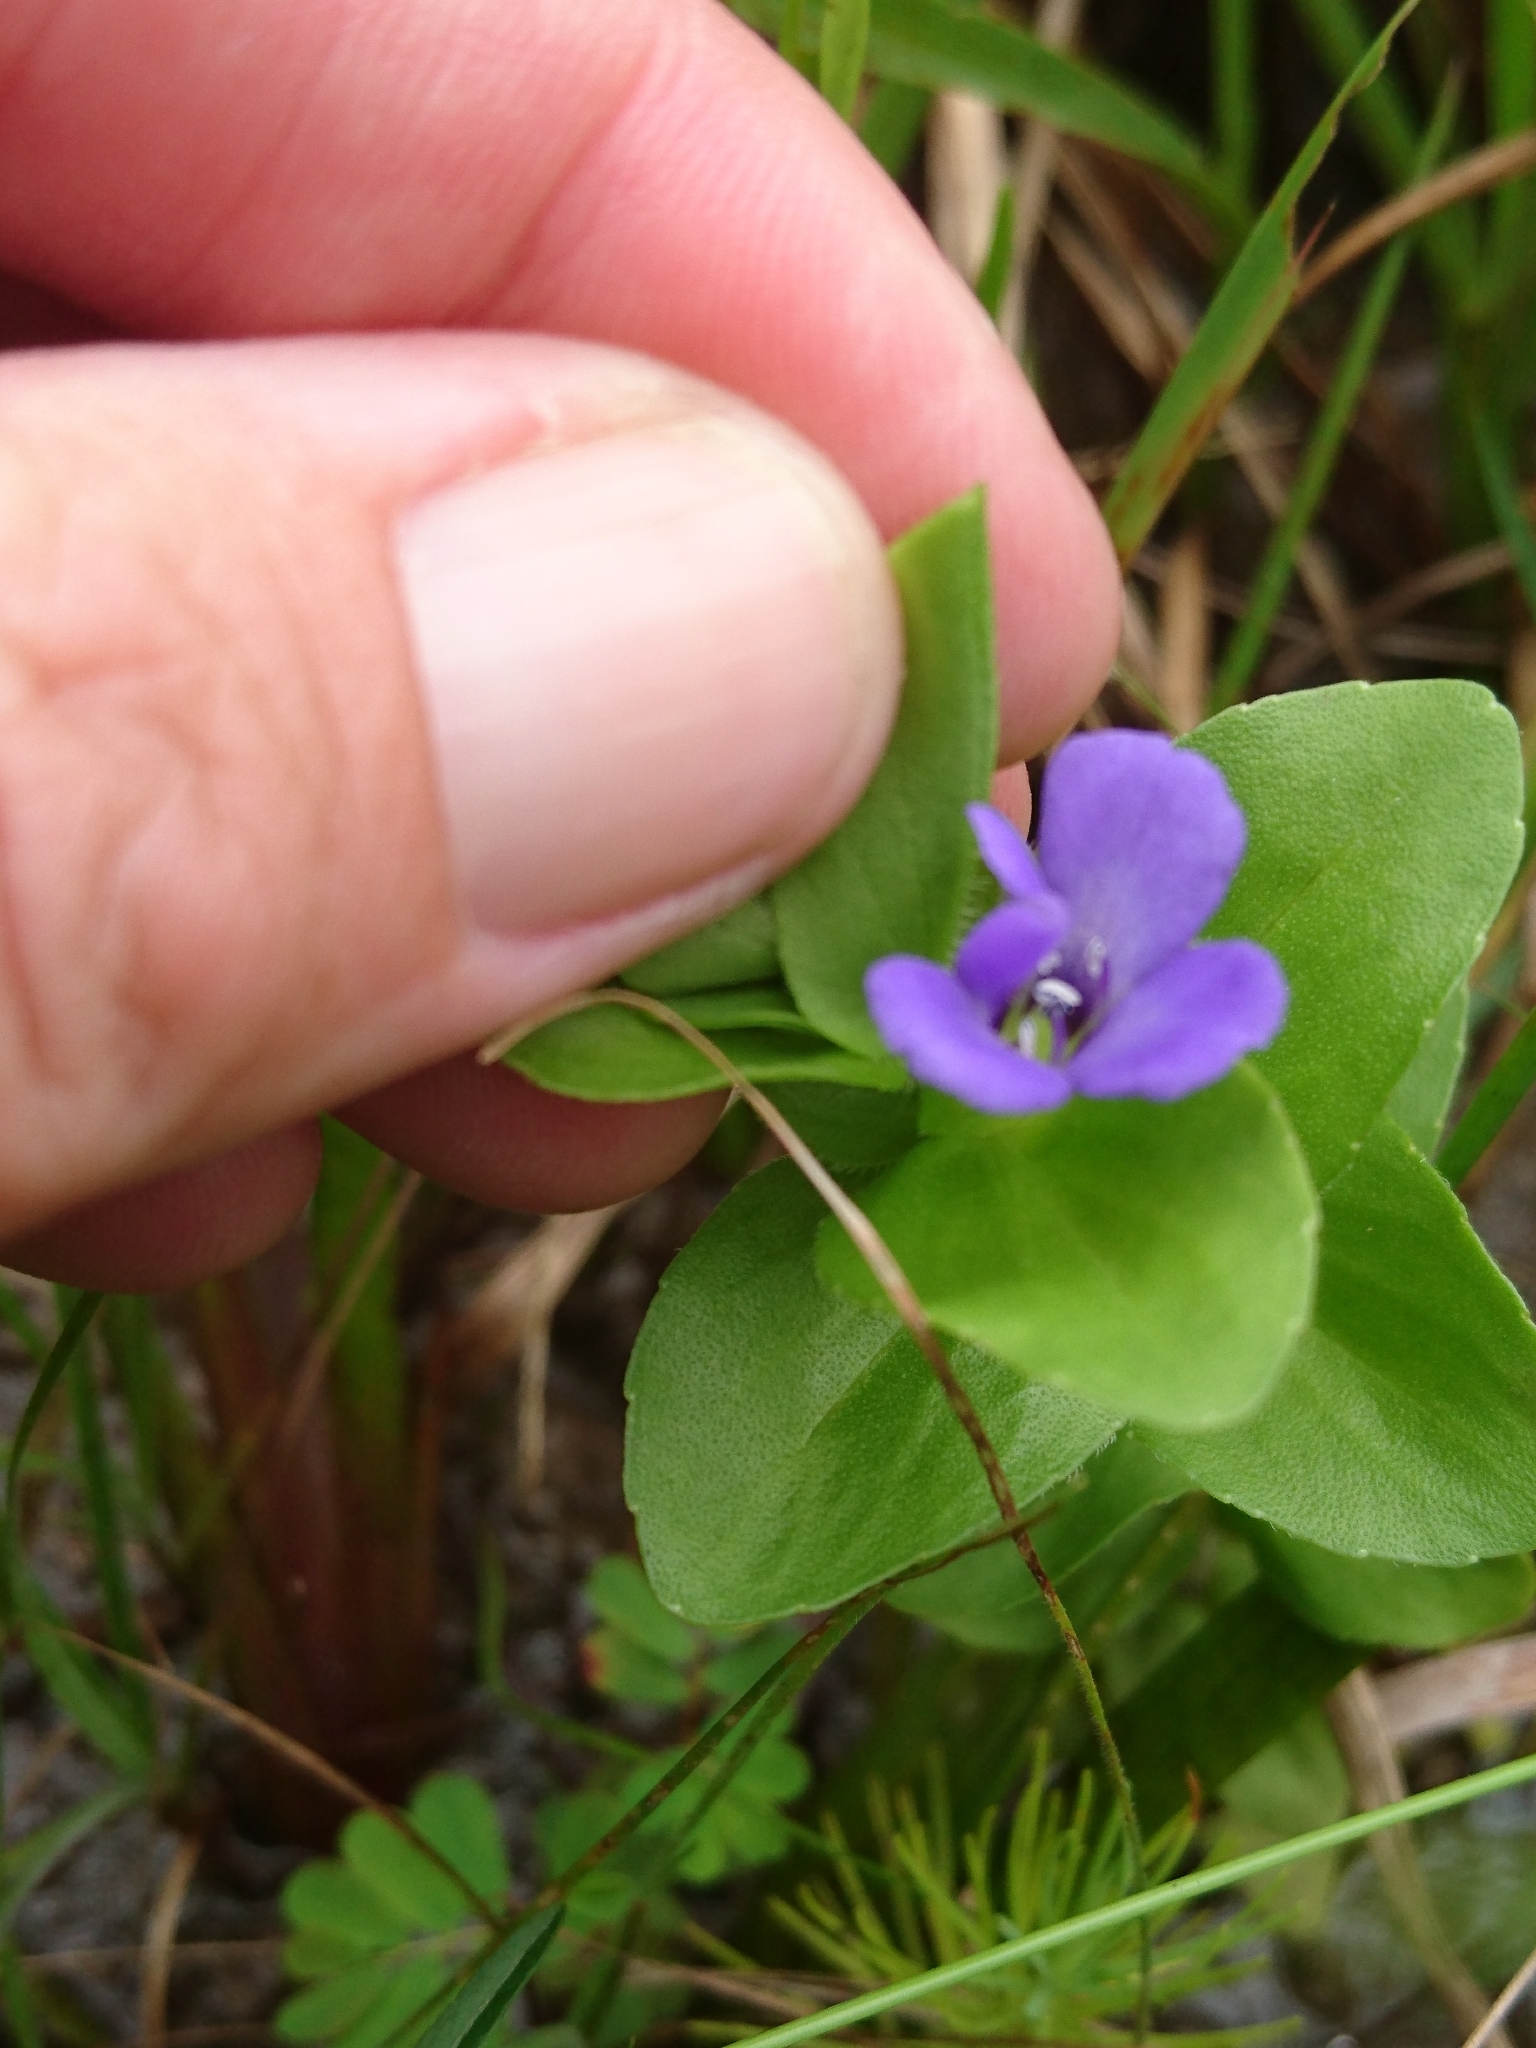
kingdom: Plantae
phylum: Tracheophyta
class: Magnoliopsida
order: Lamiales
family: Plantaginaceae
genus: Bacopa
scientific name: Bacopa caroliniana
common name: Lemon bacopa
